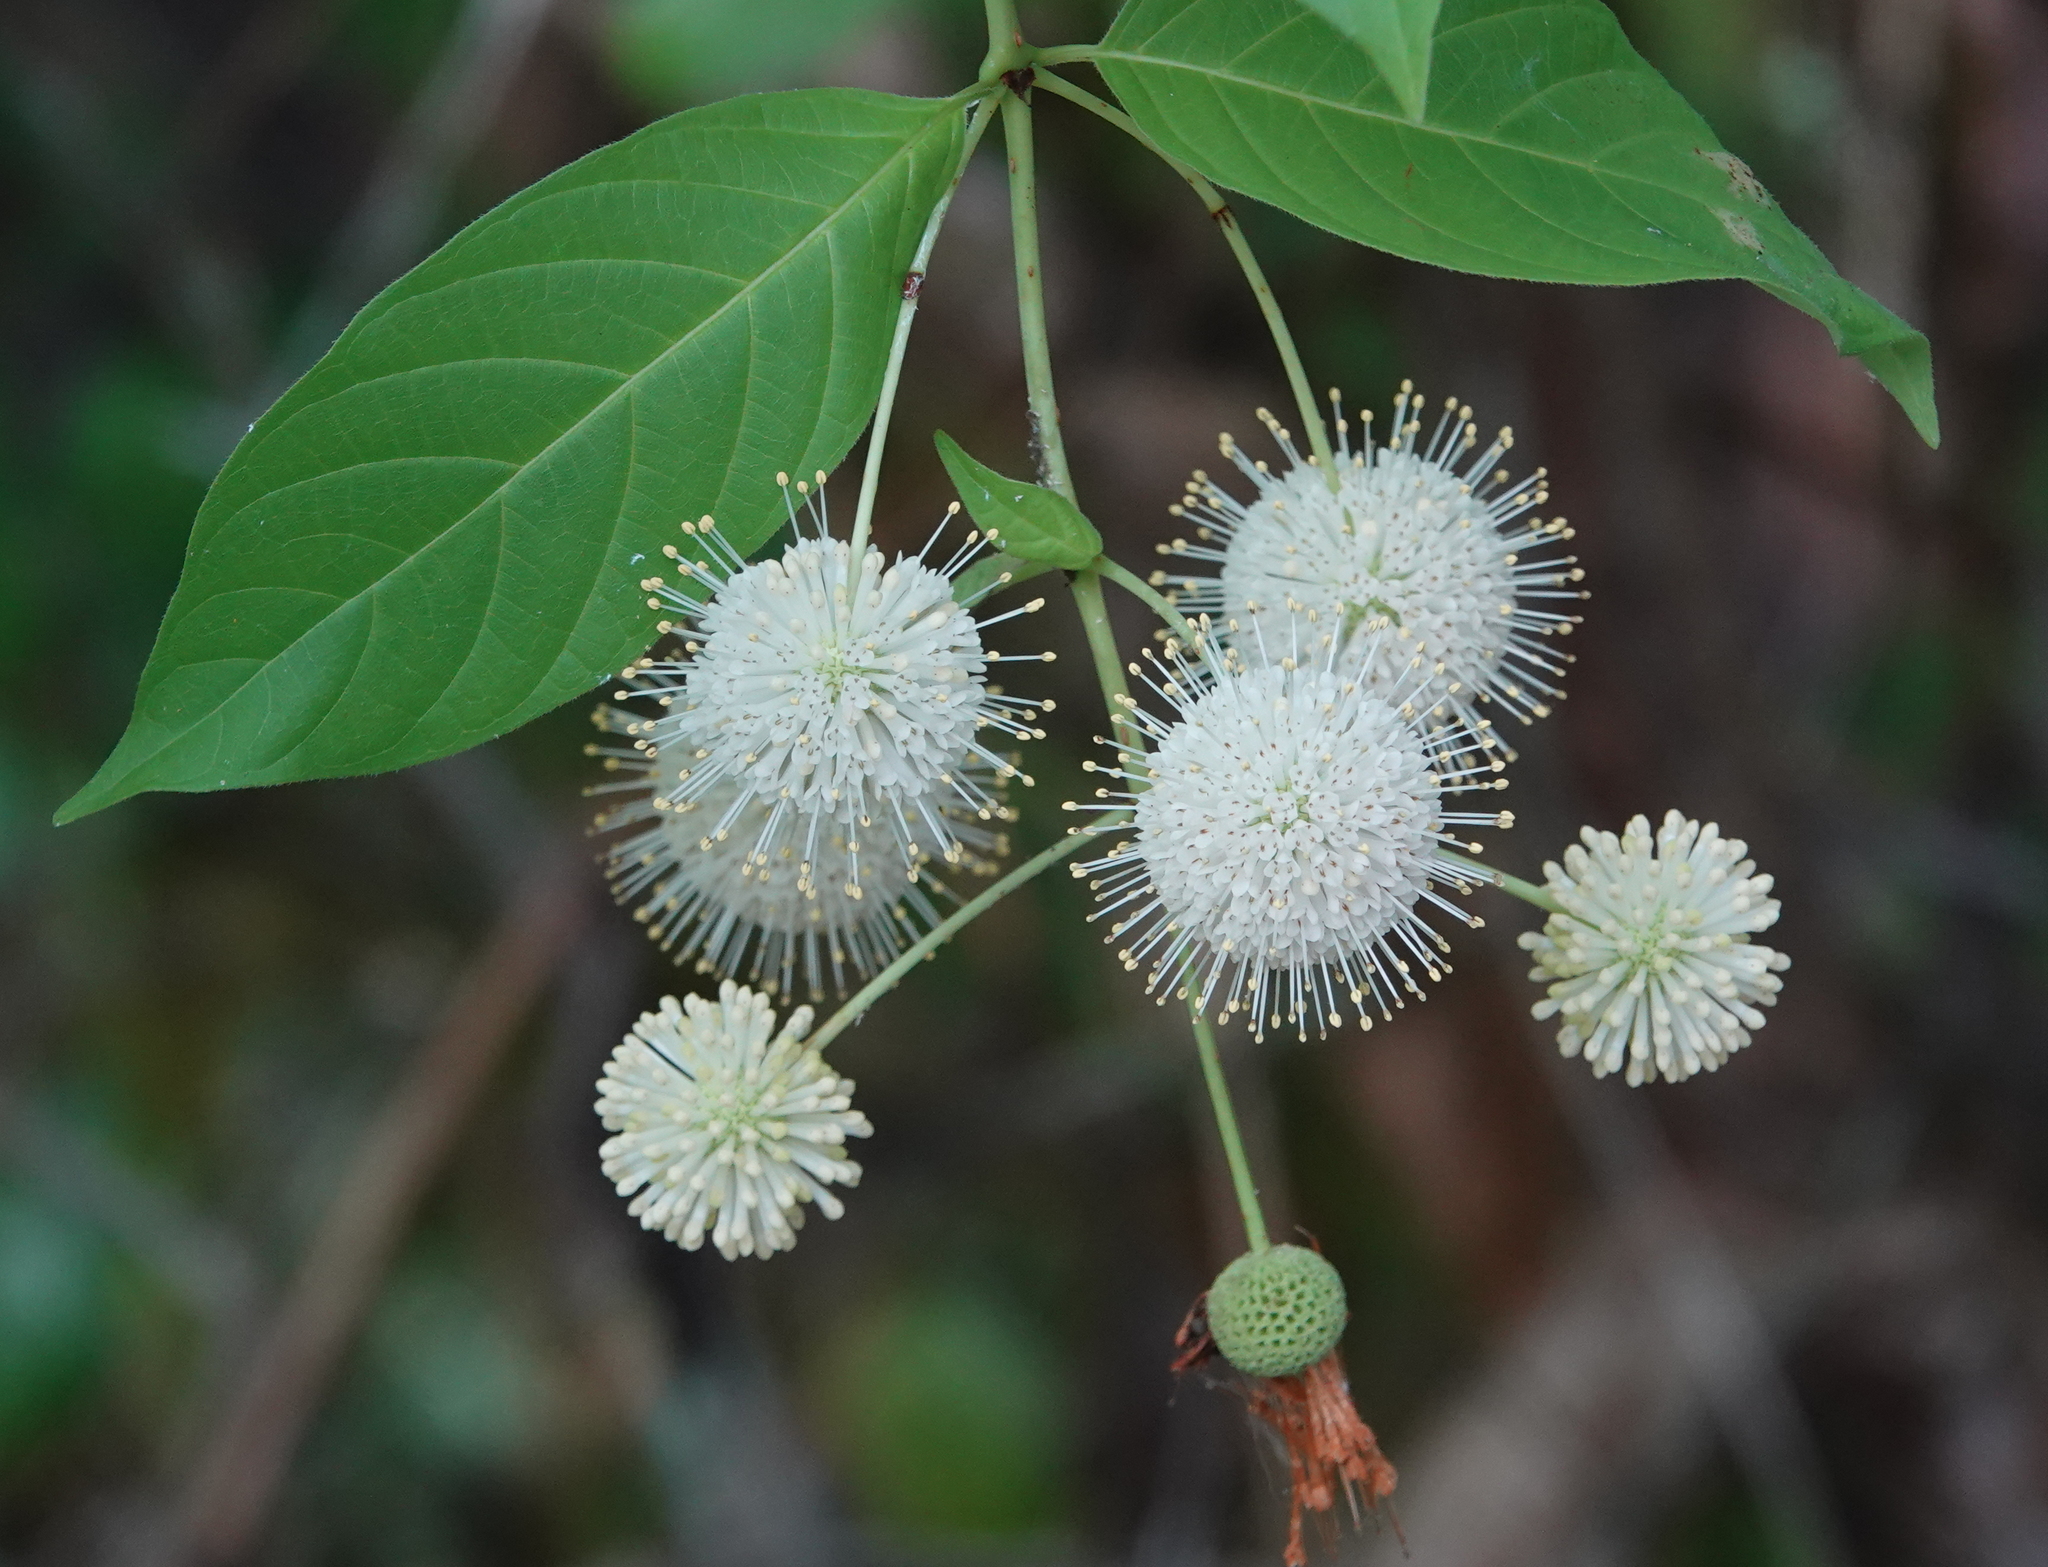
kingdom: Plantae
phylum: Tracheophyta
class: Magnoliopsida
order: Gentianales
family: Rubiaceae
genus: Cephalanthus
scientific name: Cephalanthus occidentalis
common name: Button-willow
